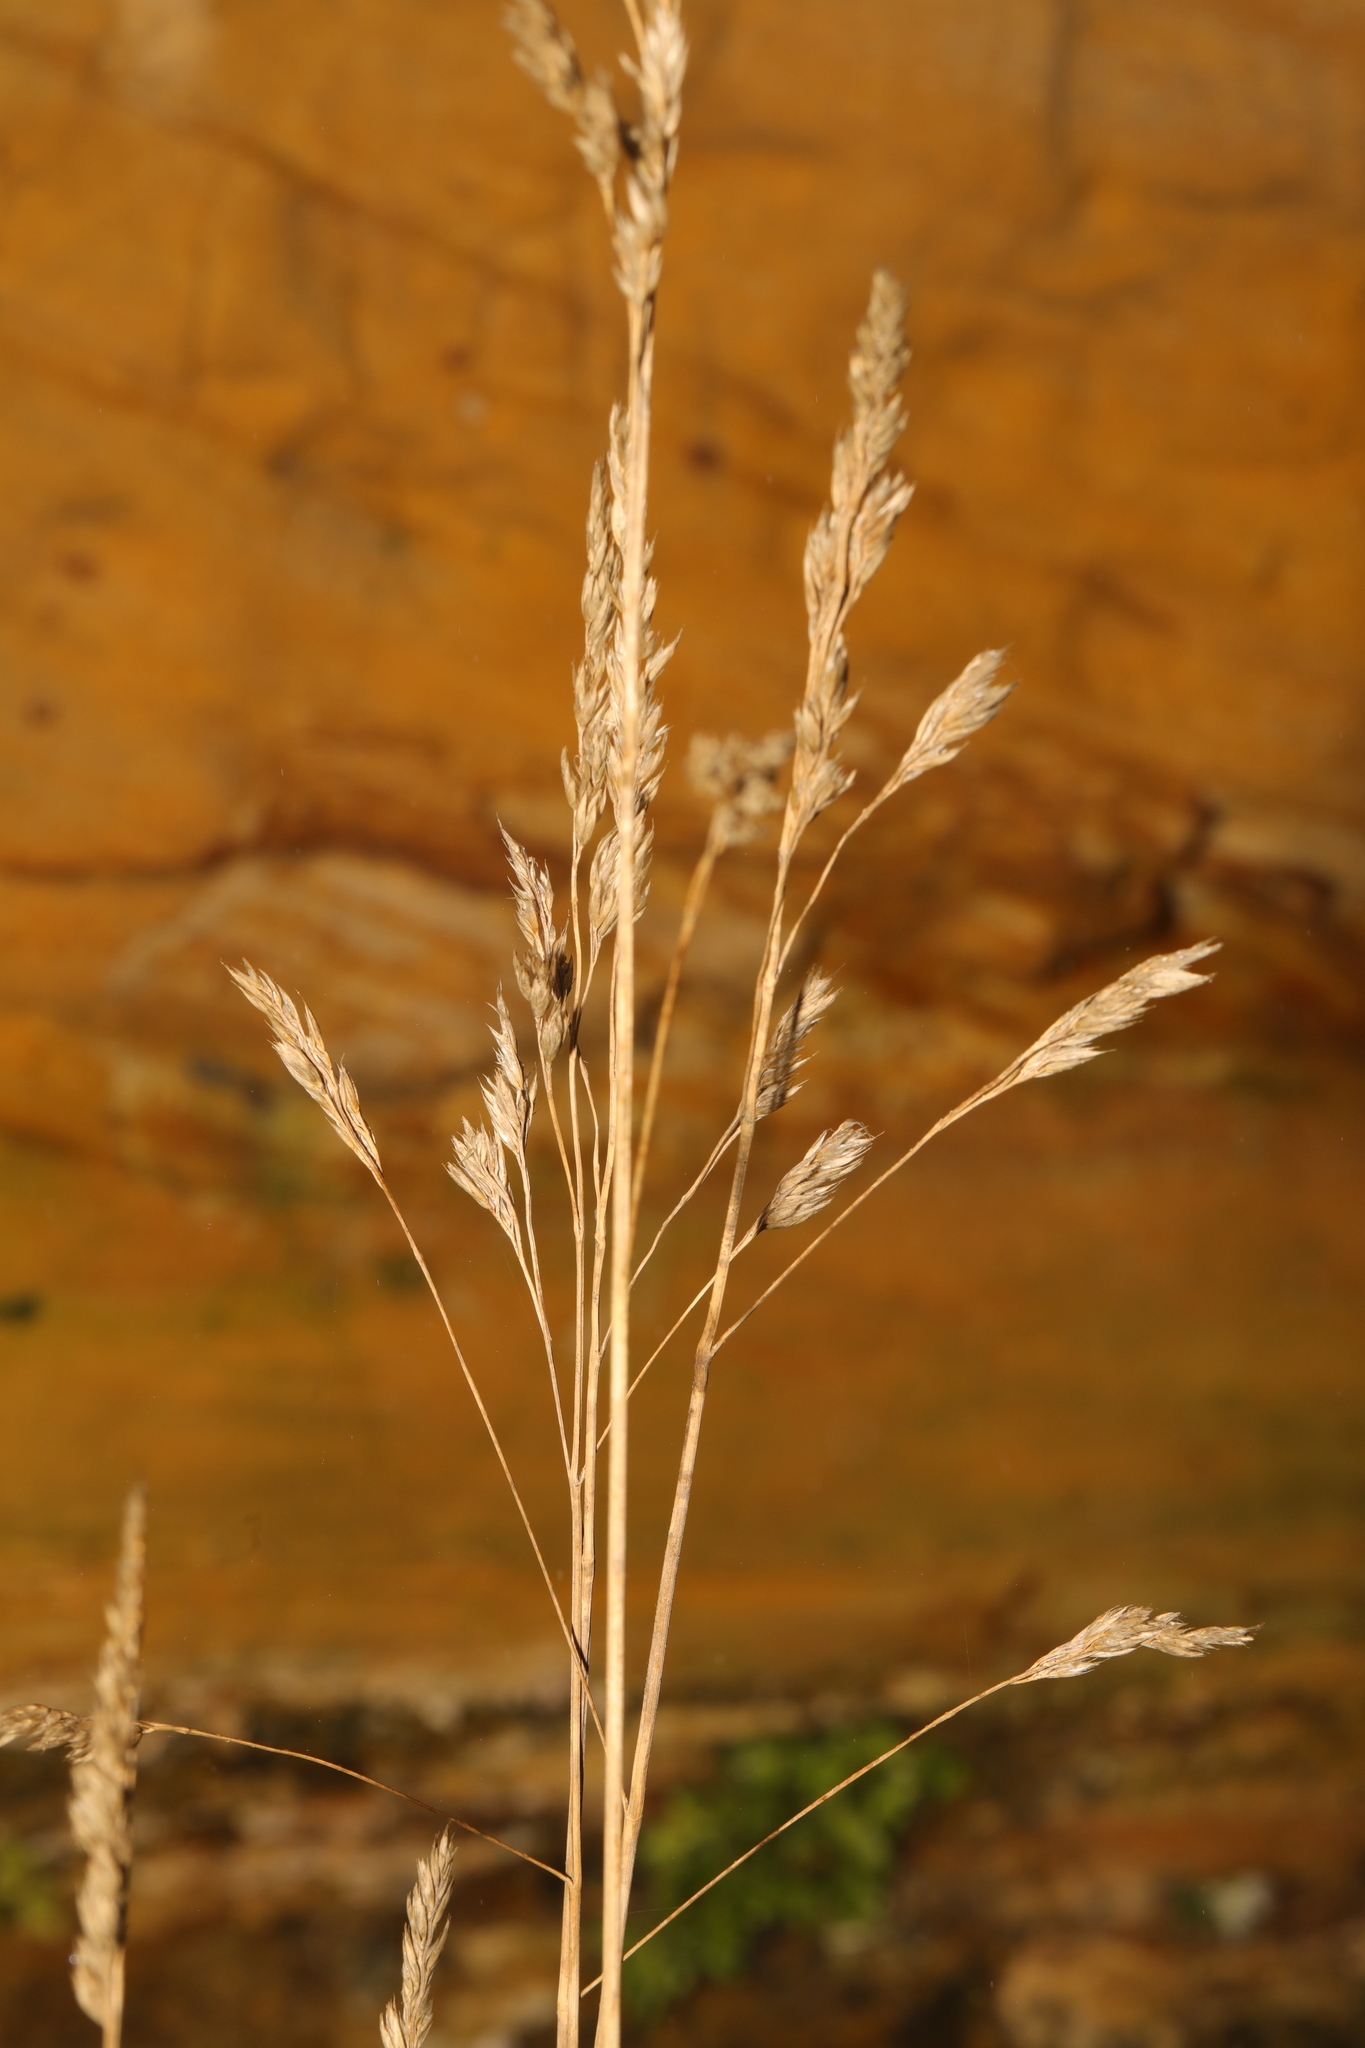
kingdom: Plantae
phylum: Tracheophyta
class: Liliopsida
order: Poales
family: Poaceae
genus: Dactylis
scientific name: Dactylis glomerata
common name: Orchardgrass
